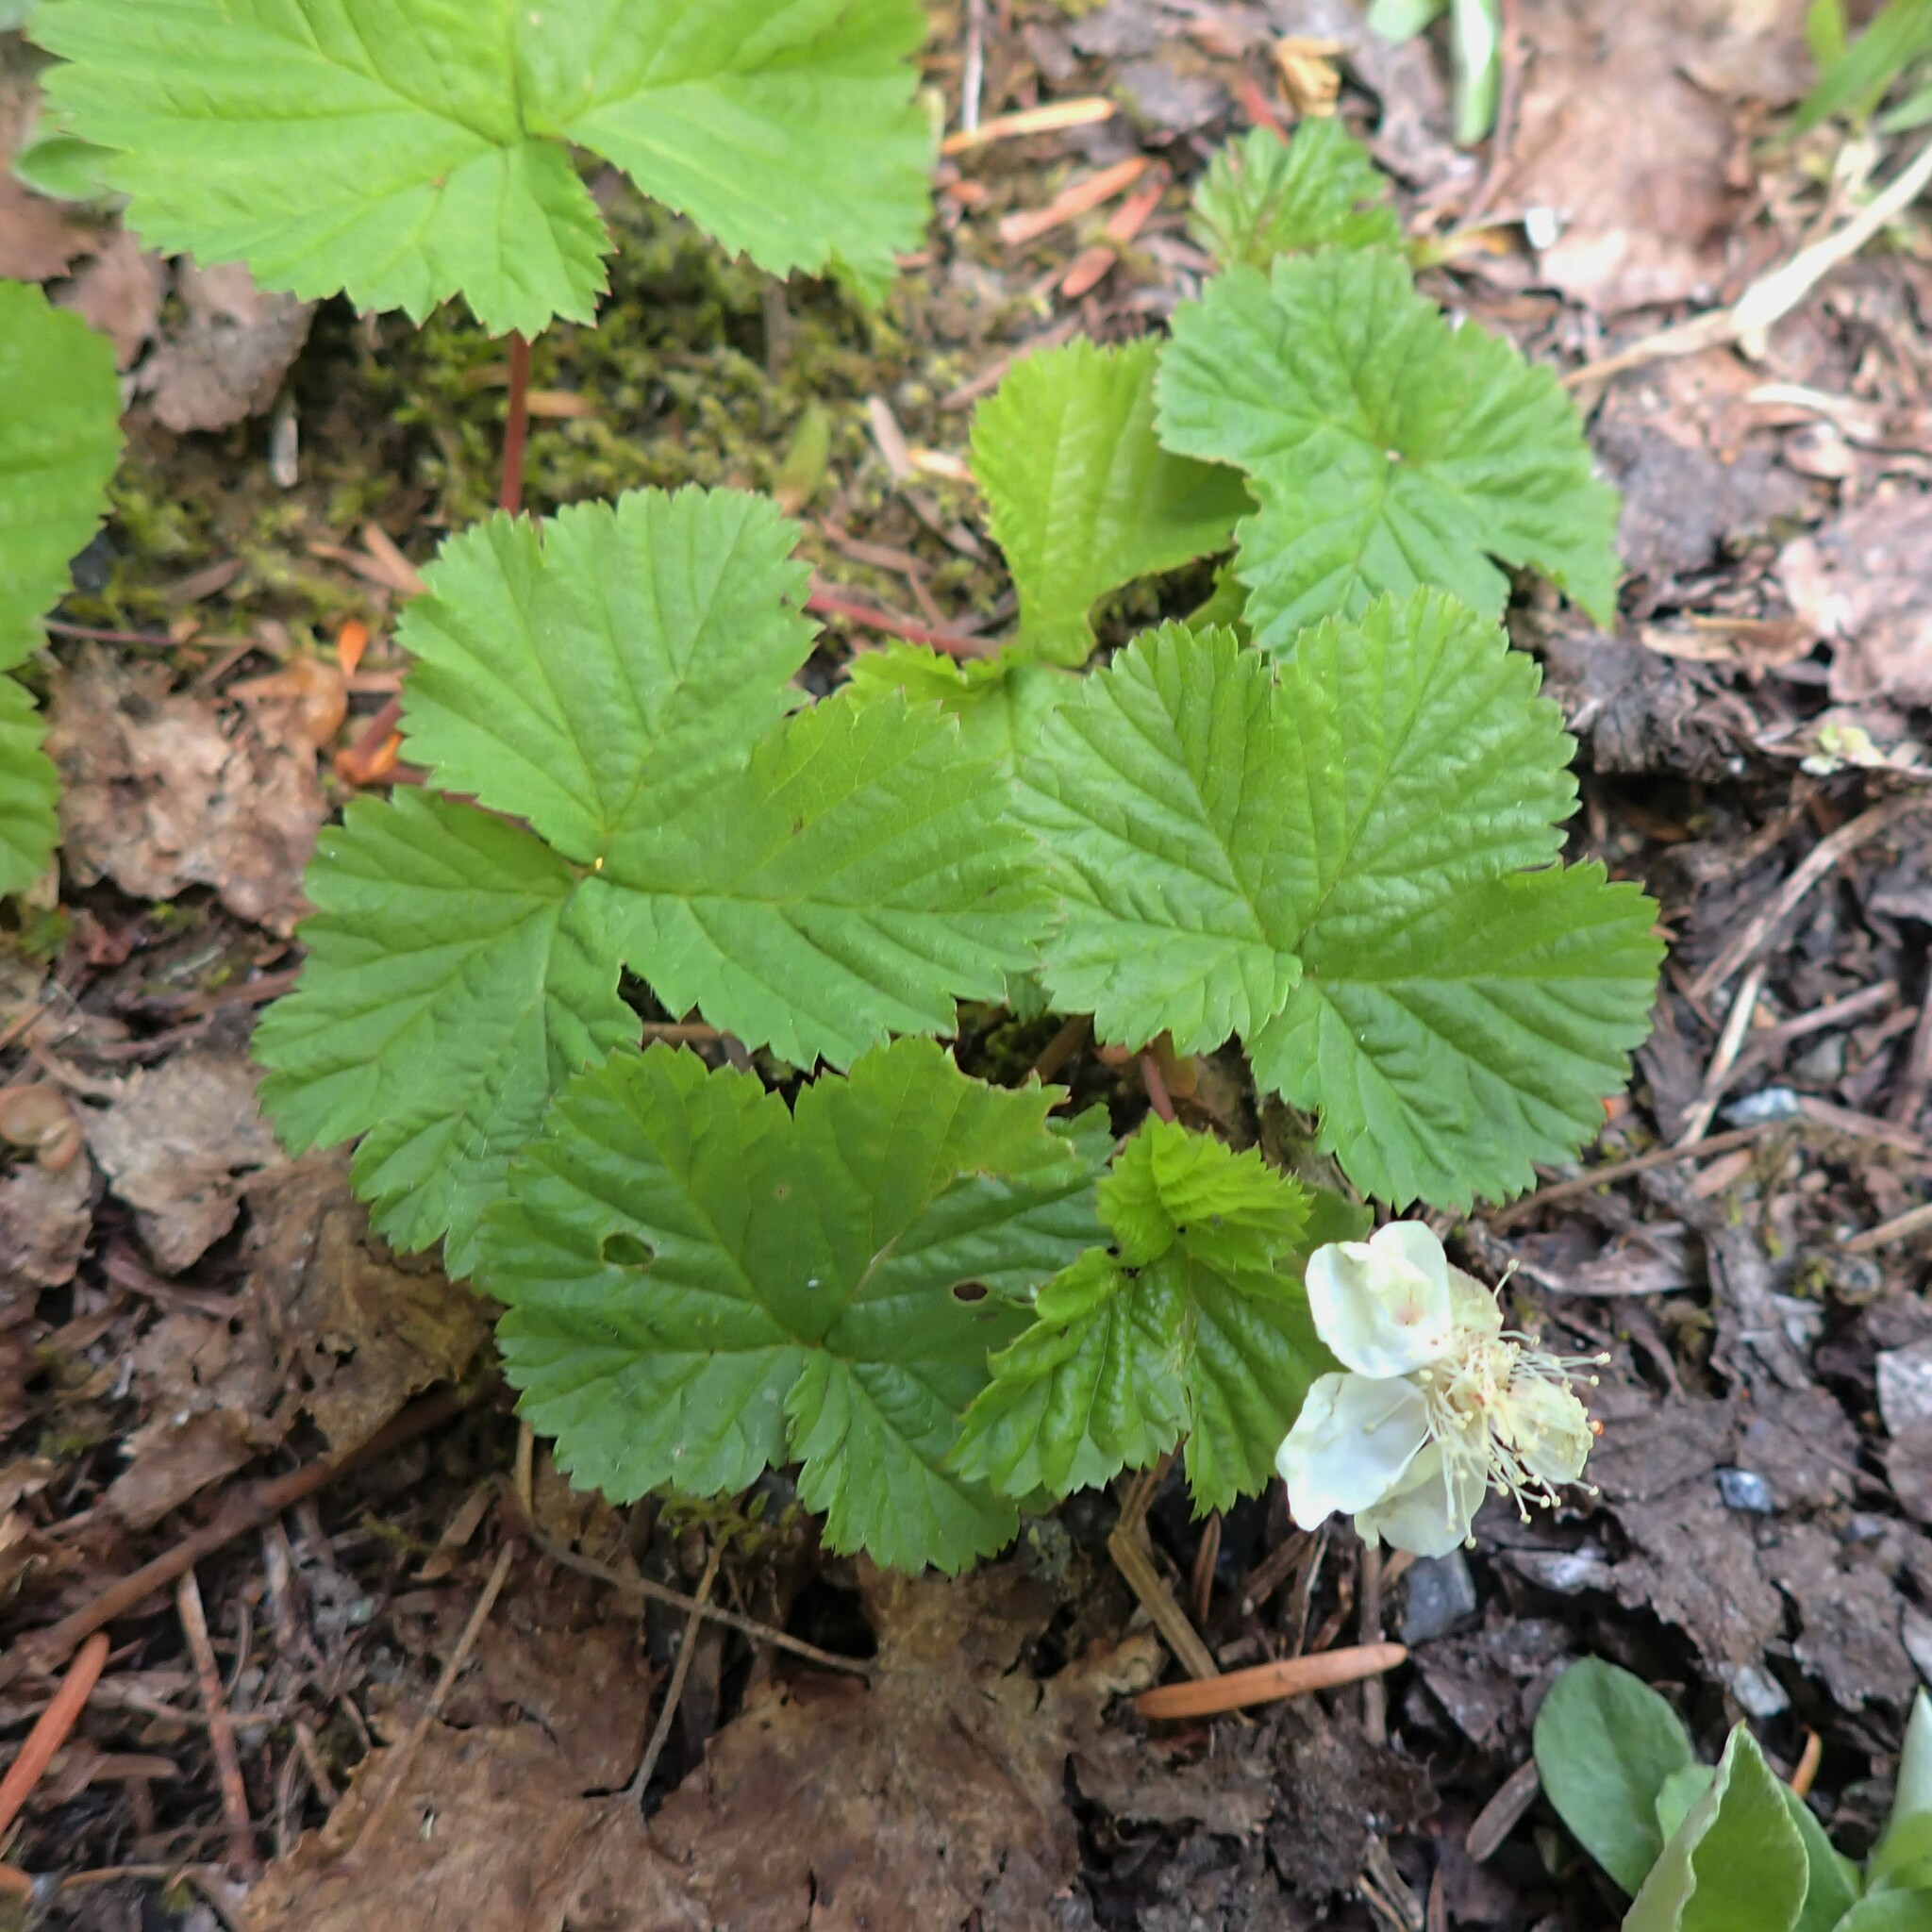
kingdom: Plantae
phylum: Tracheophyta
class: Magnoliopsida
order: Rosales
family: Rosaceae
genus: Rubus
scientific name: Rubus lasiococcus
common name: Dwarf bramble
